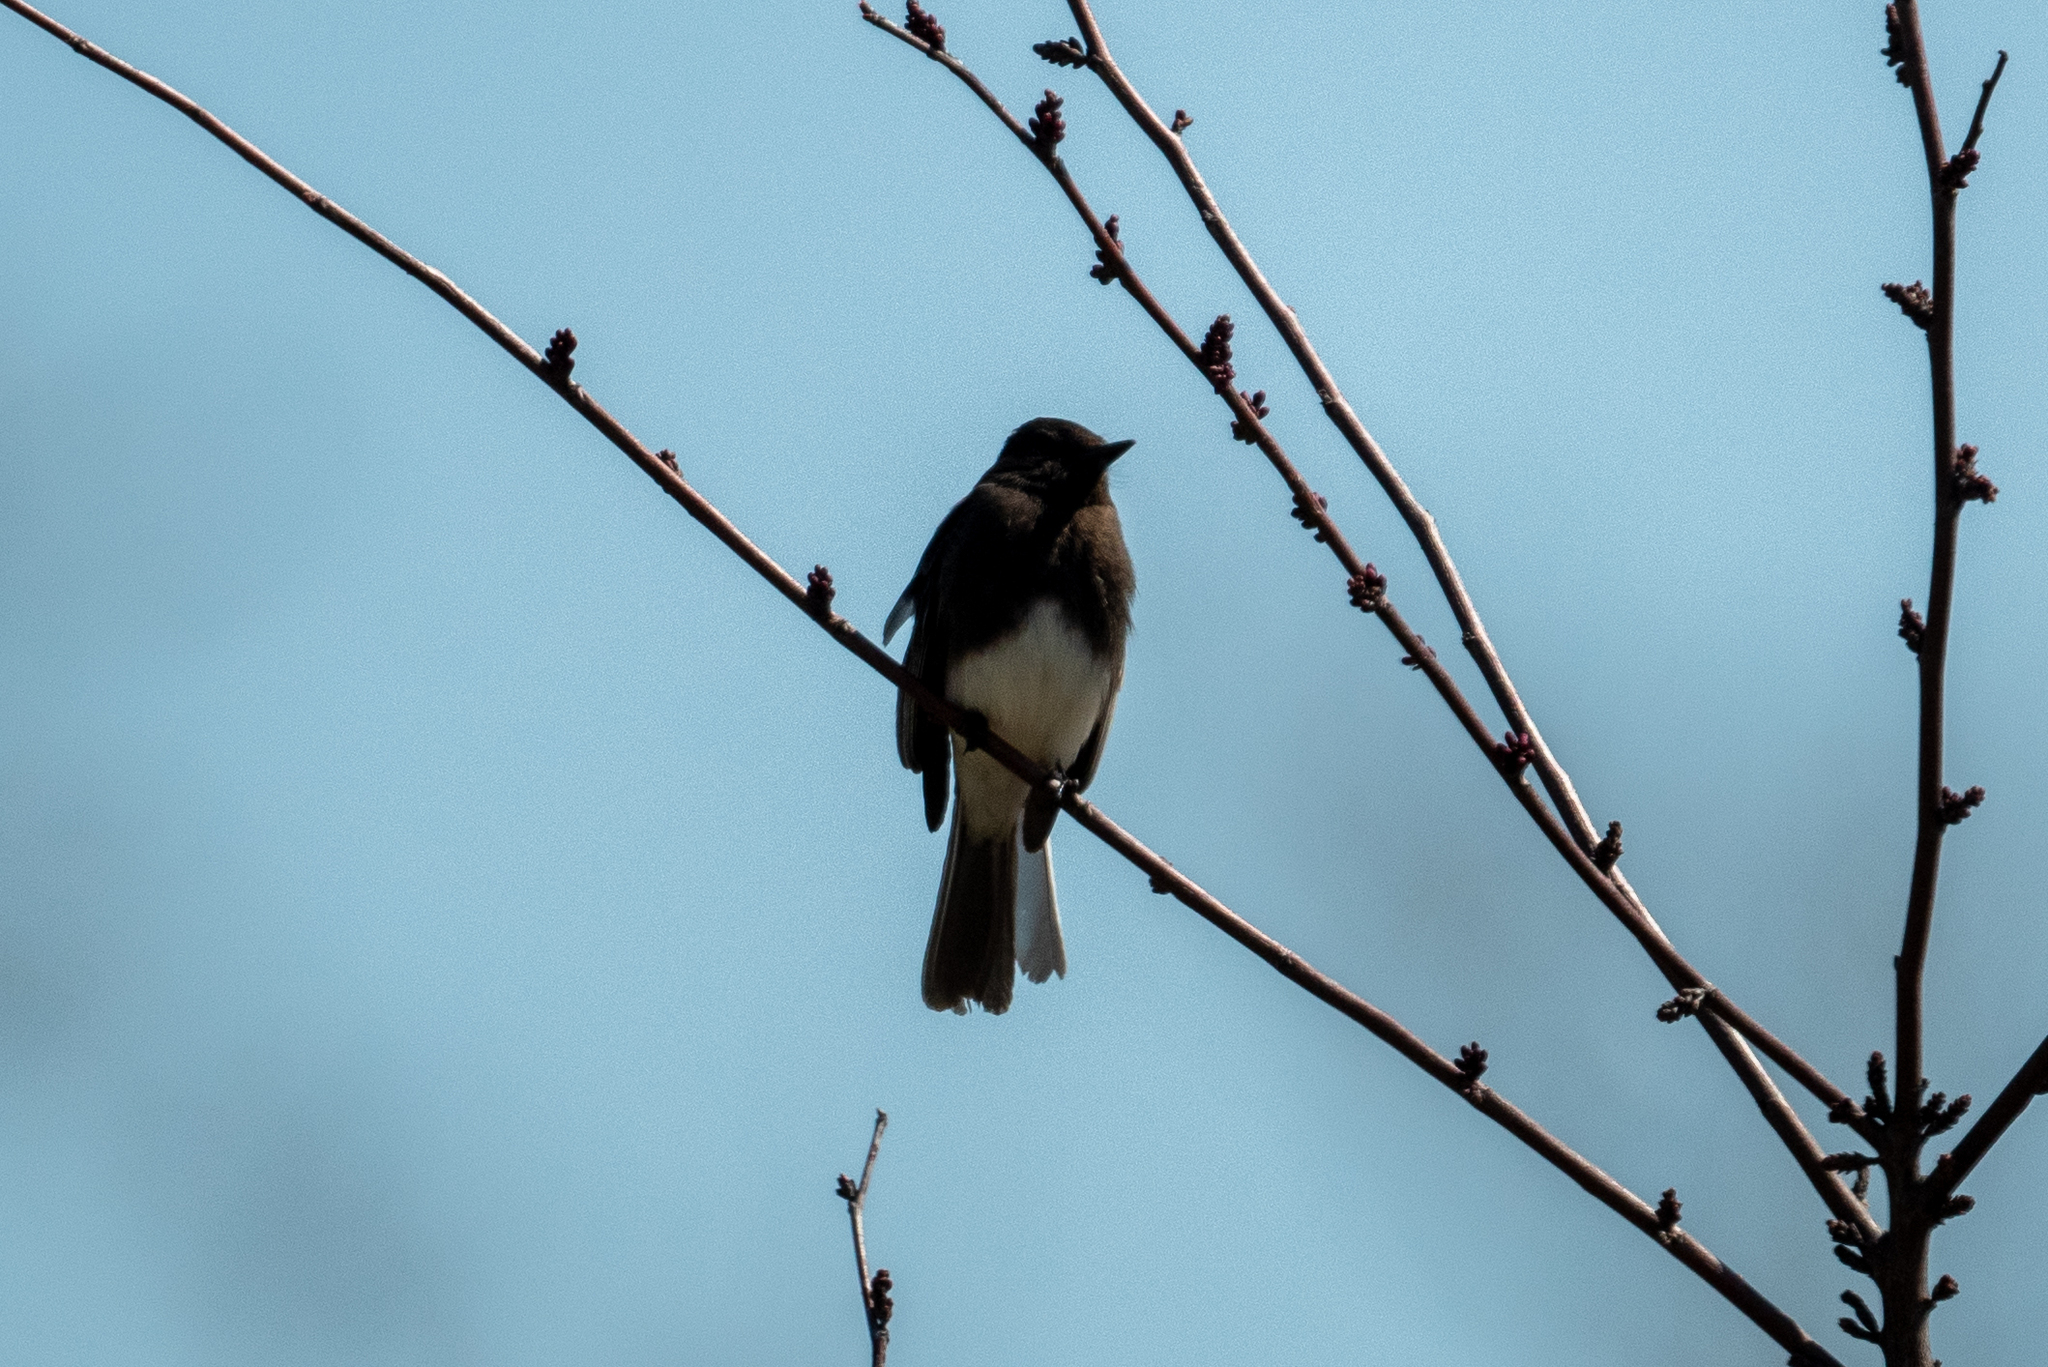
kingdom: Animalia
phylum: Chordata
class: Aves
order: Passeriformes
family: Tyrannidae
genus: Sayornis
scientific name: Sayornis nigricans
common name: Black phoebe
